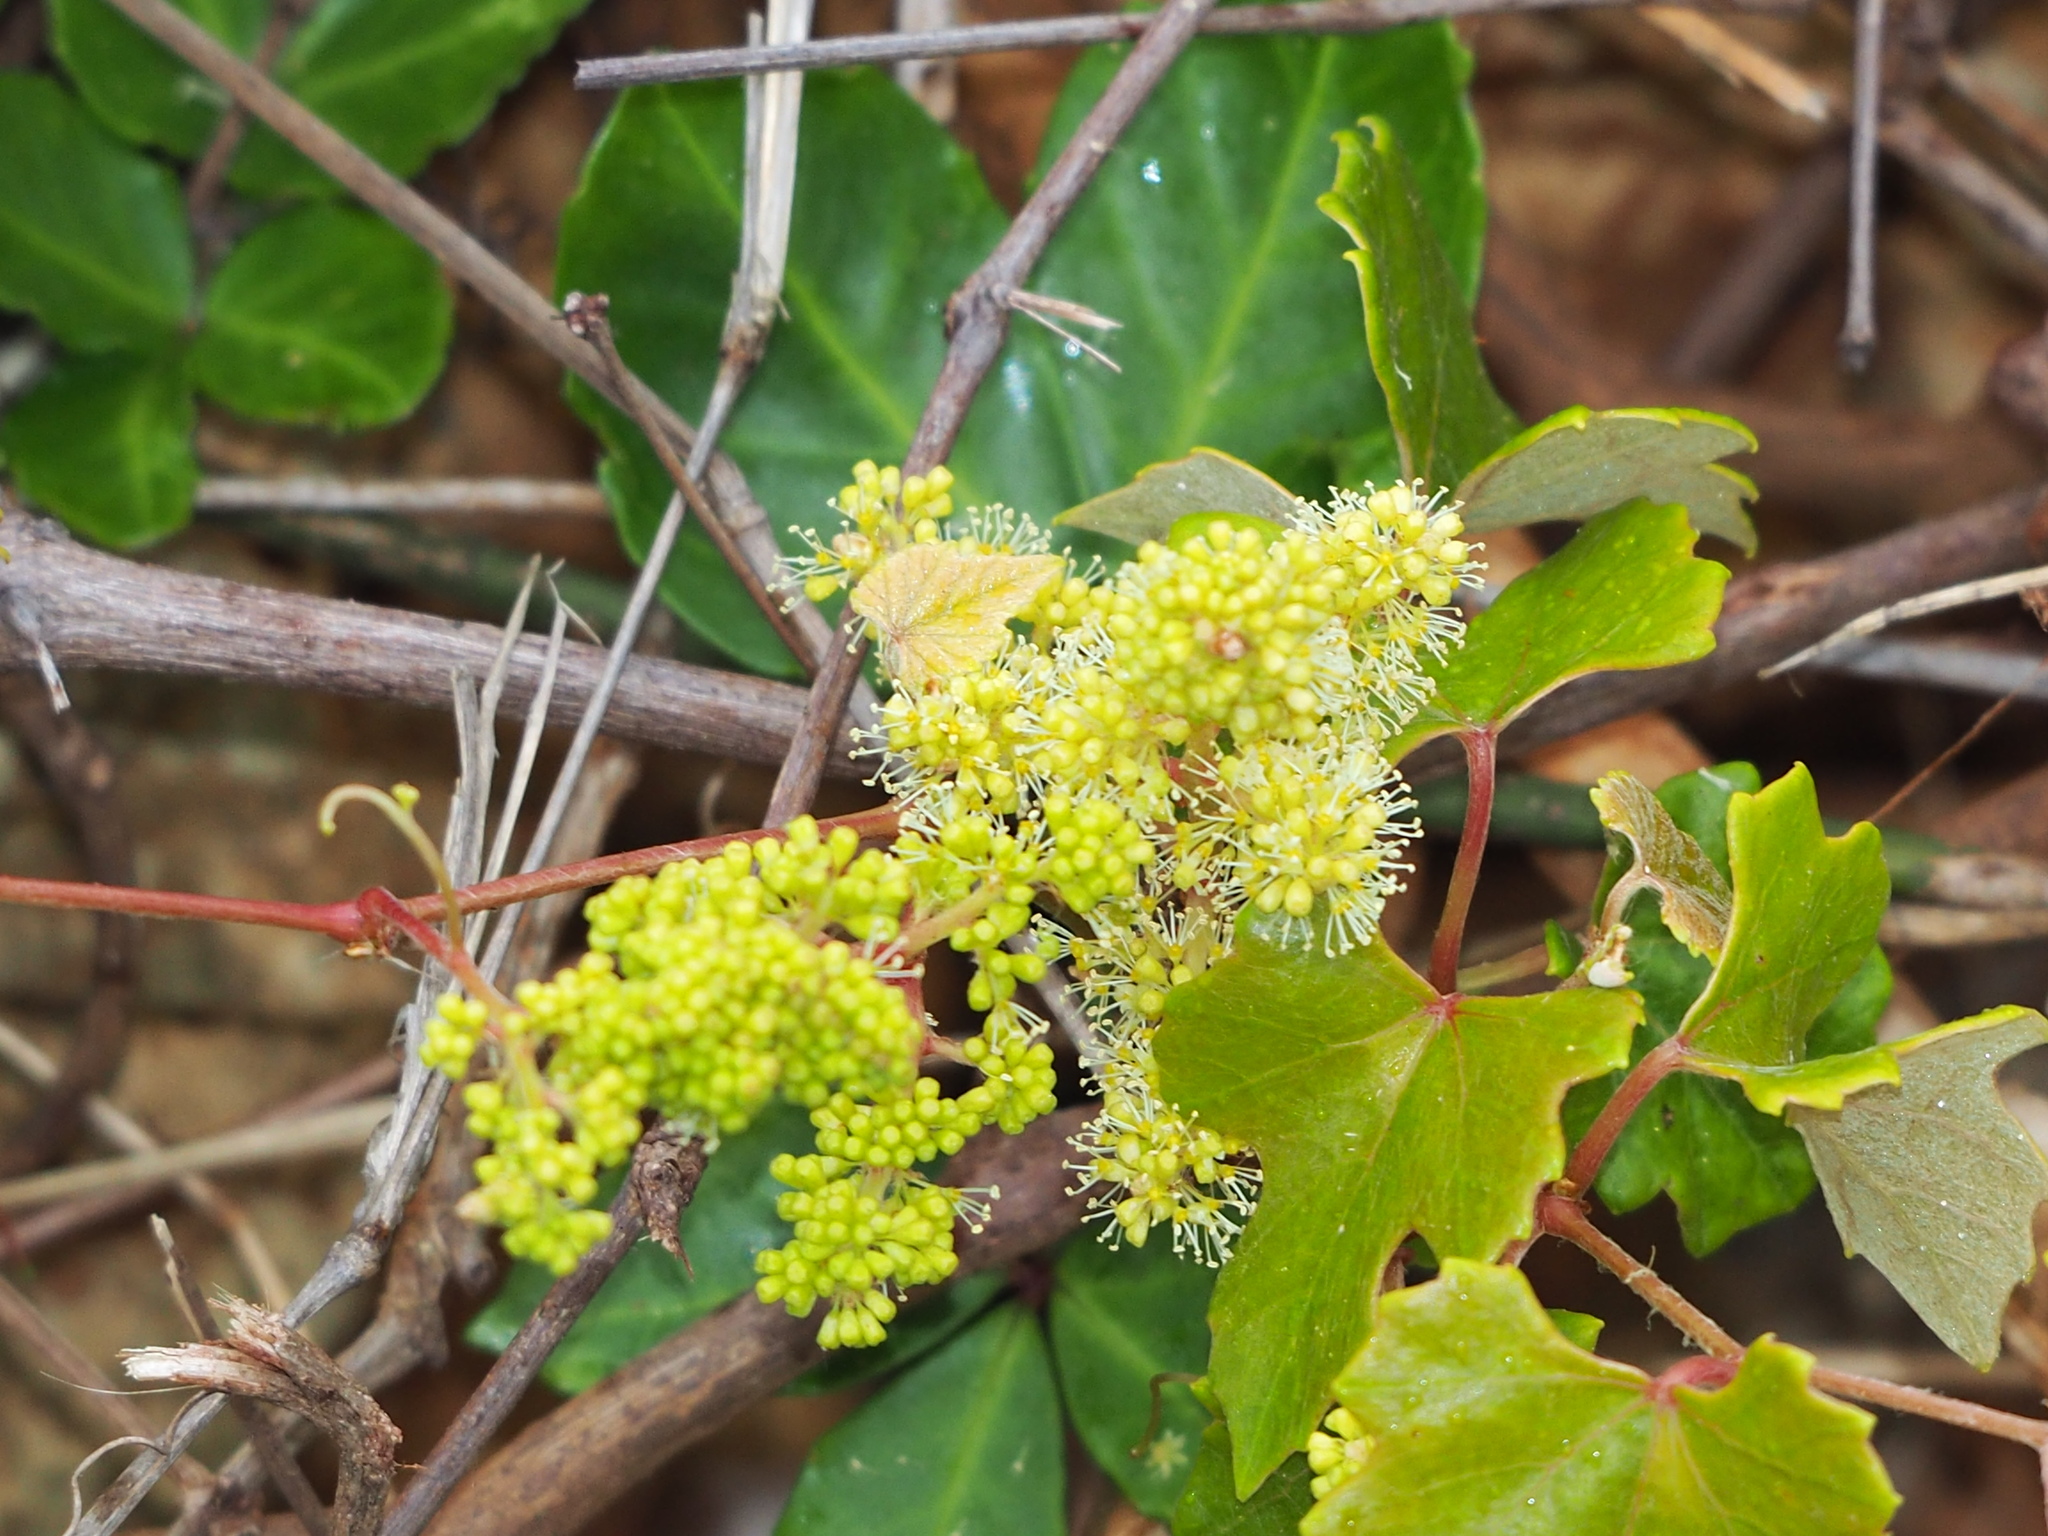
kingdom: Plantae
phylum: Tracheophyta
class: Magnoliopsida
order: Vitales
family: Vitaceae
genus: Vitis
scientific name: Vitis flexuosa
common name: Creeping grape
